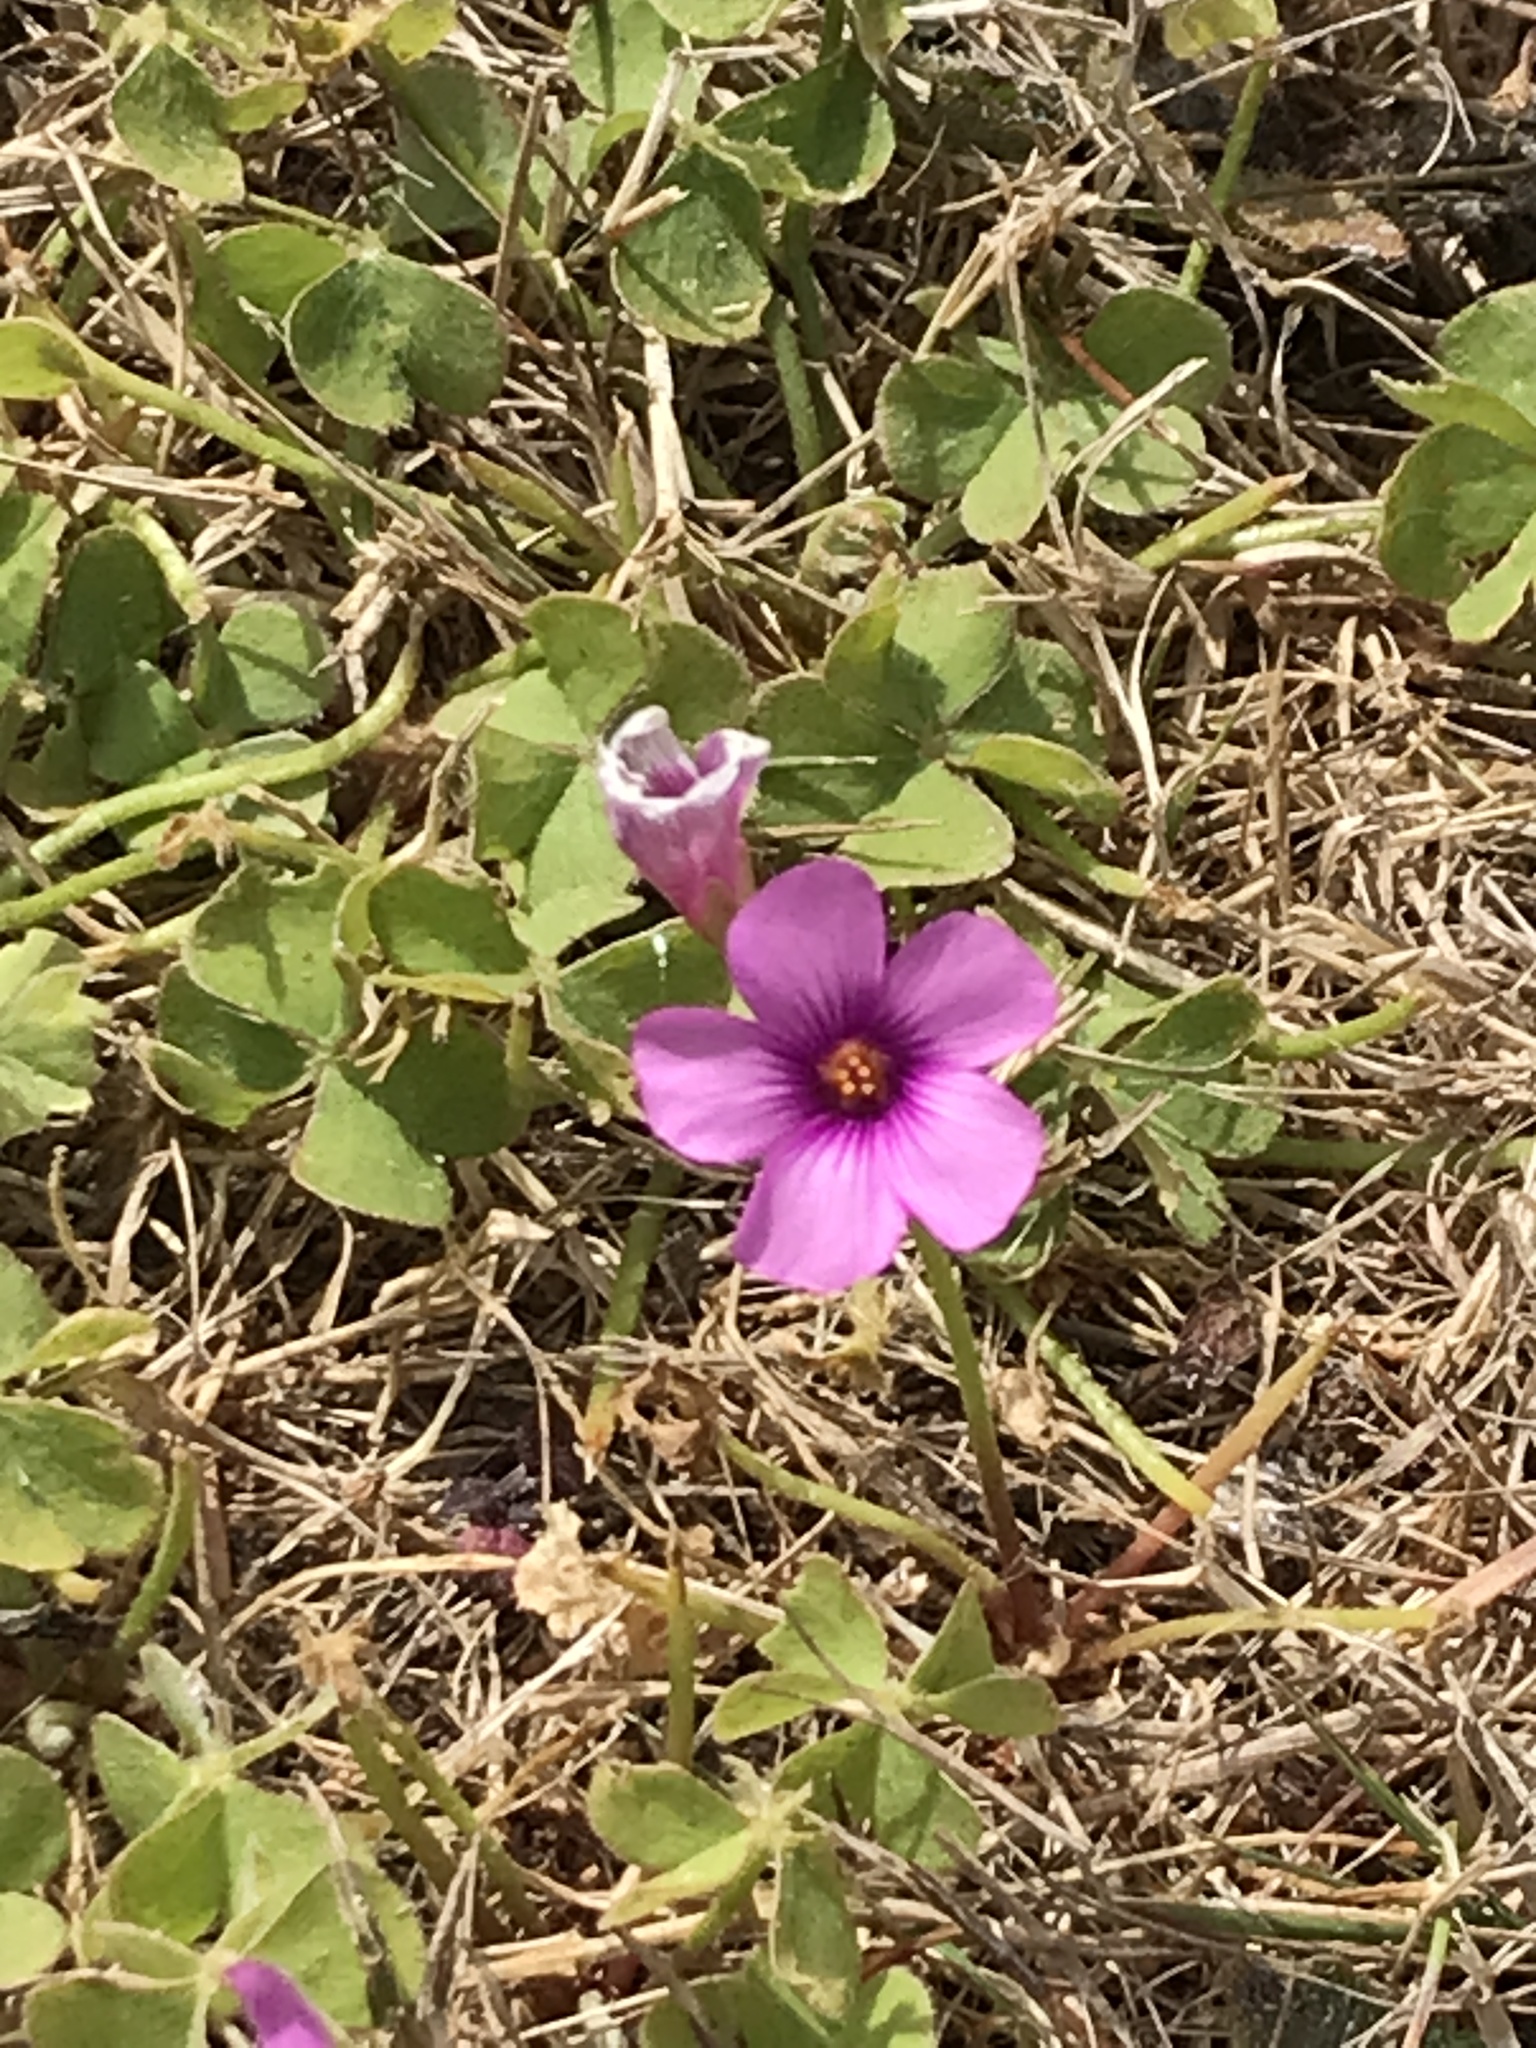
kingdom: Plantae
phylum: Tracheophyta
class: Magnoliopsida
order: Oxalidales
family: Oxalidaceae
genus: Oxalis
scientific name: Oxalis articulata
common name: Pink-sorrel
